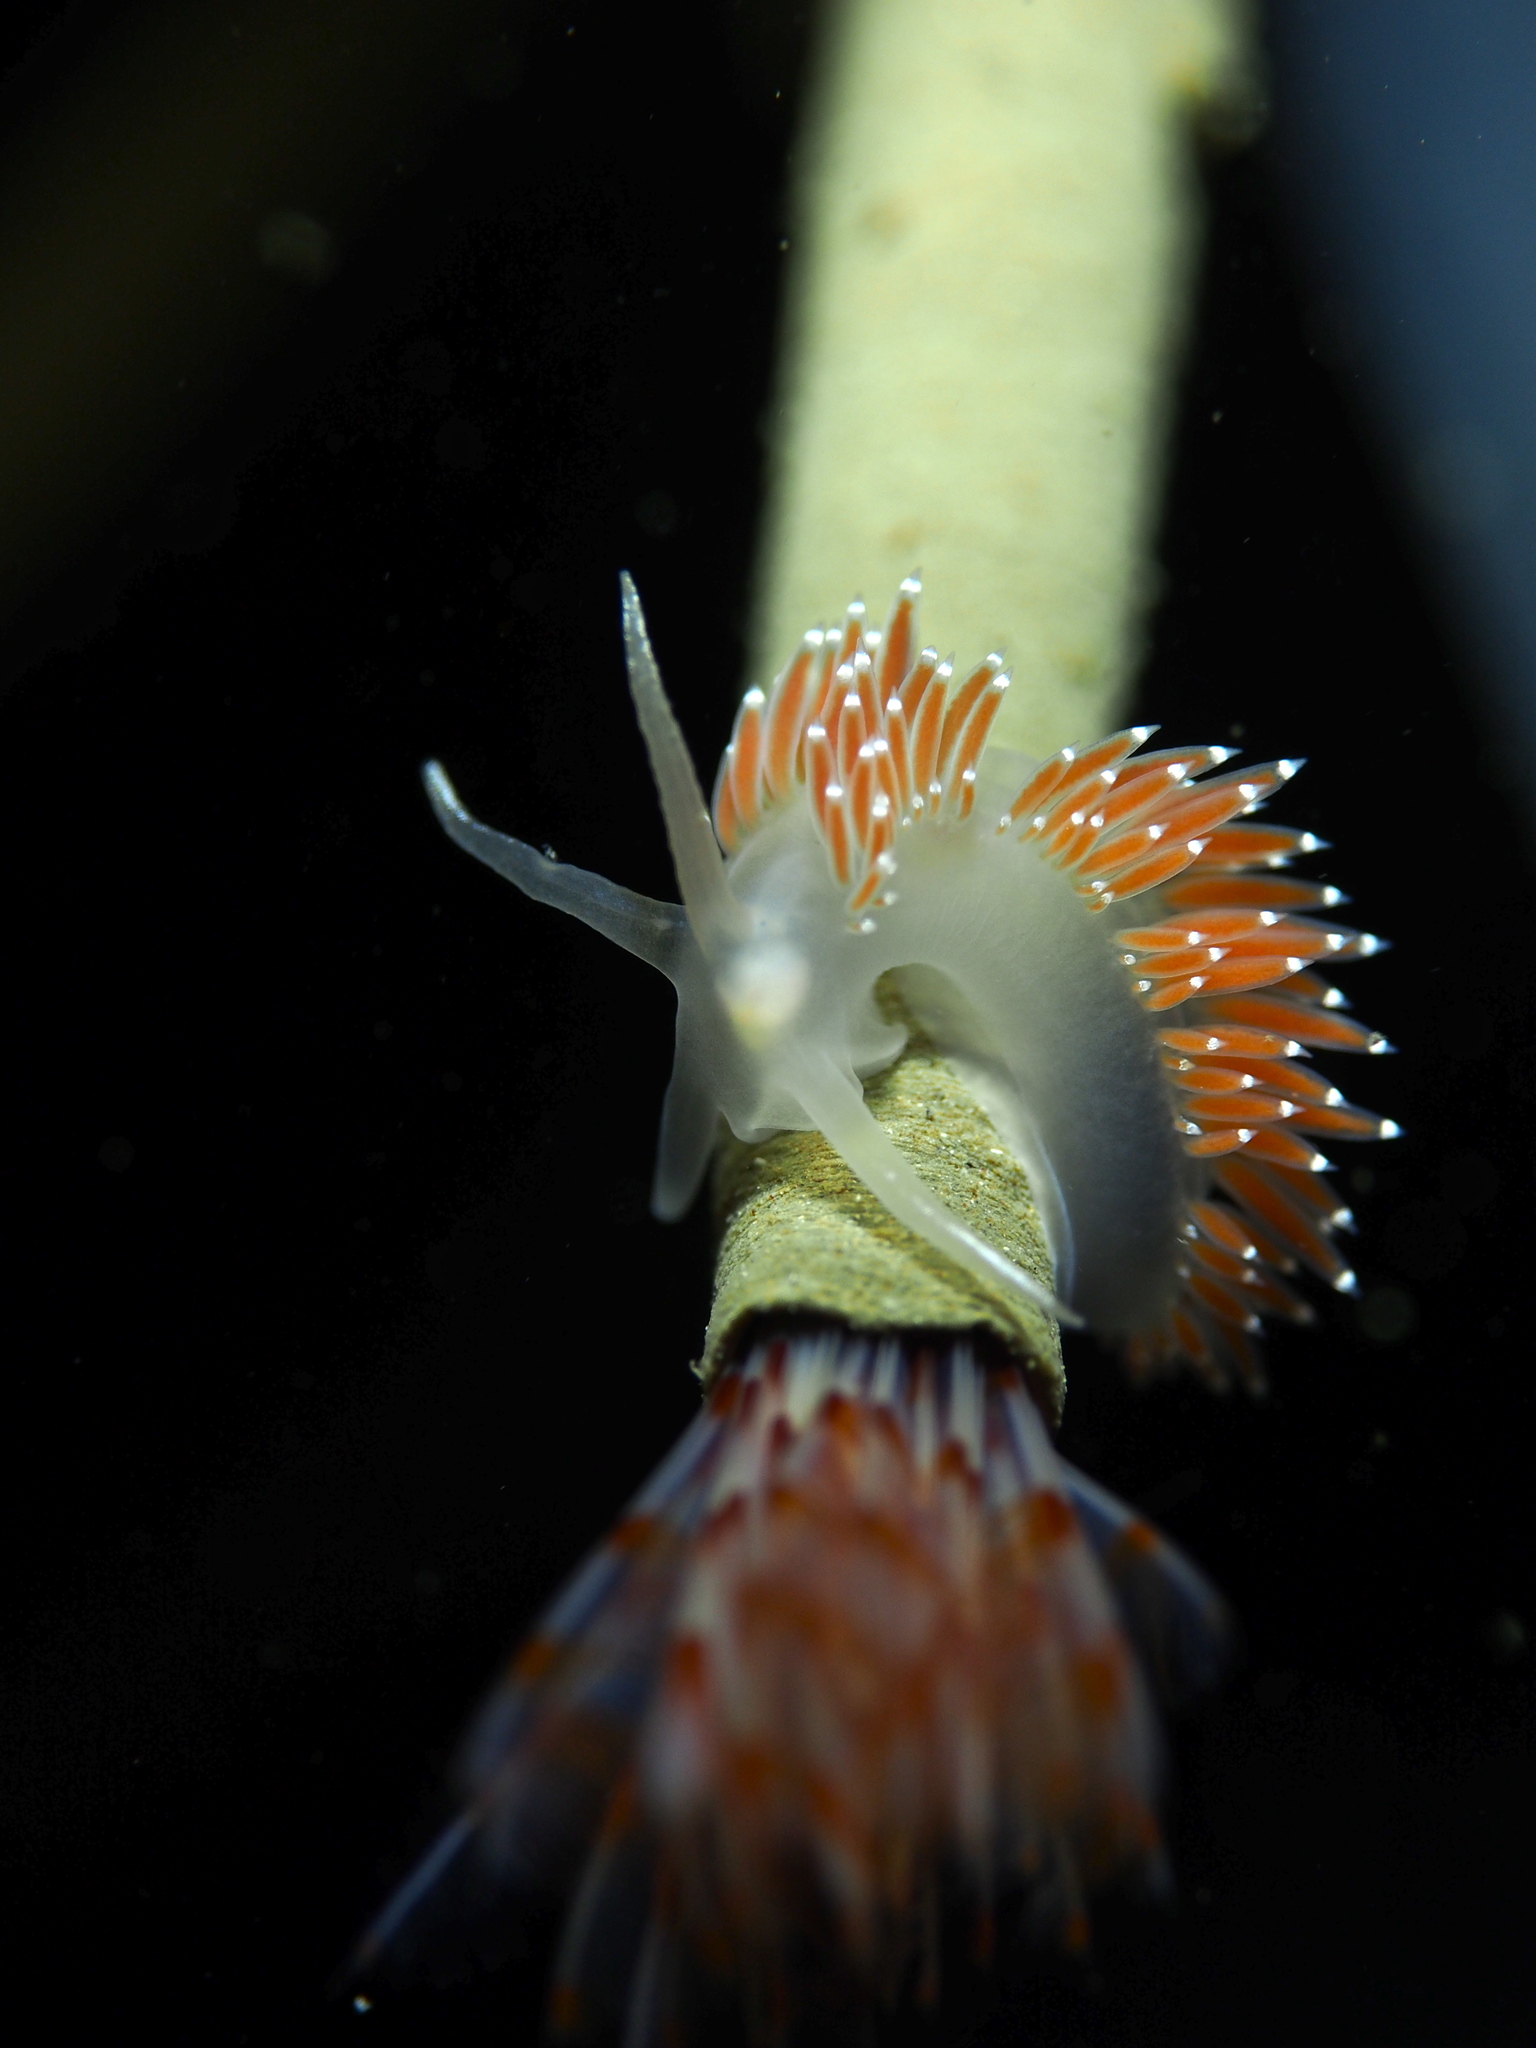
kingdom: Animalia
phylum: Mollusca
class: Gastropoda
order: Nudibranchia
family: Coryphellidae
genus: Coryphella
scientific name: Coryphella verrucosa
